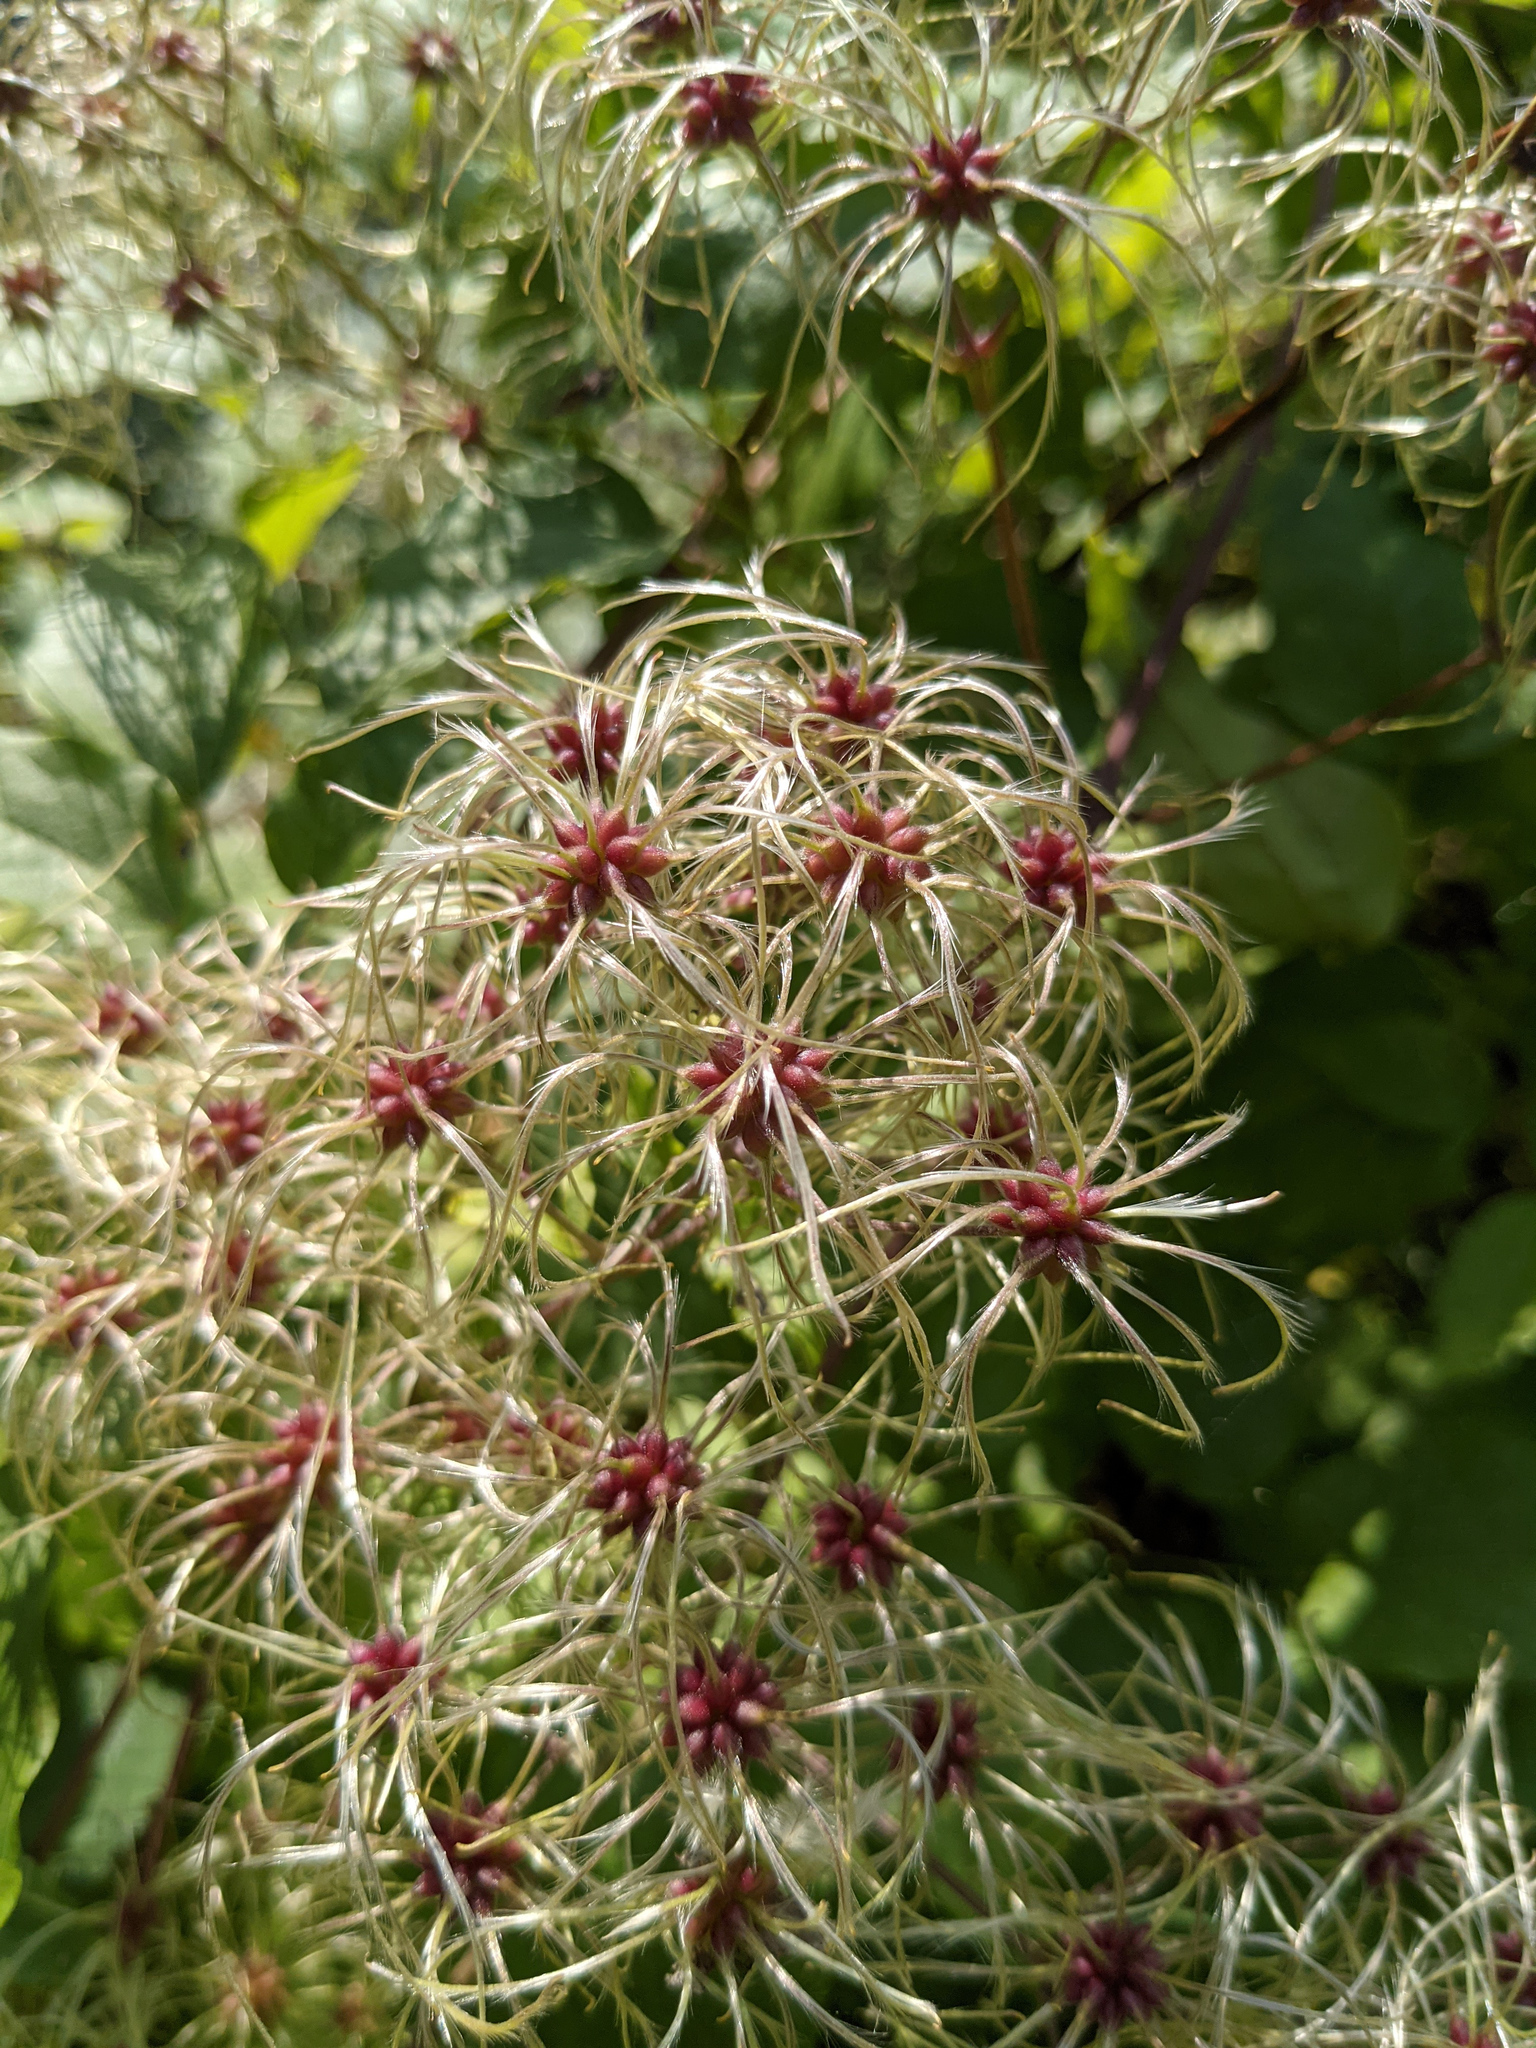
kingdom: Plantae
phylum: Tracheophyta
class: Magnoliopsida
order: Ranunculales
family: Ranunculaceae
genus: Clematis
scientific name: Clematis vitalba
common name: Evergreen clematis
